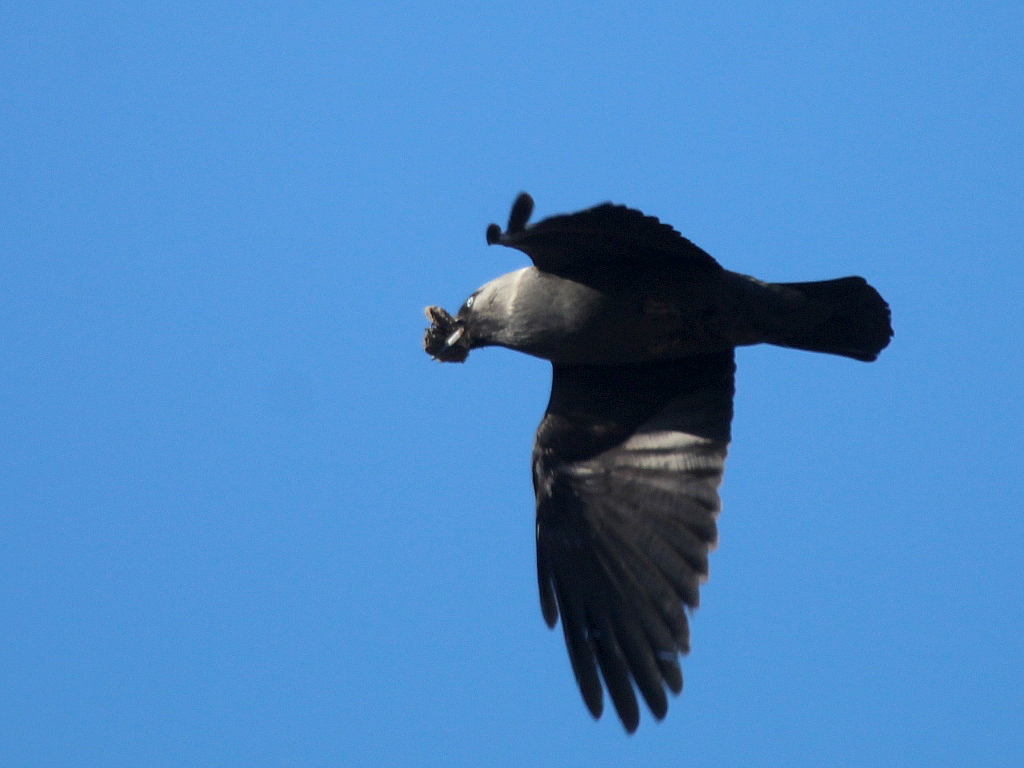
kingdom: Animalia
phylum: Chordata
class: Aves
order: Passeriformes
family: Corvidae
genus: Coloeus
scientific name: Coloeus monedula
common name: Western jackdaw
